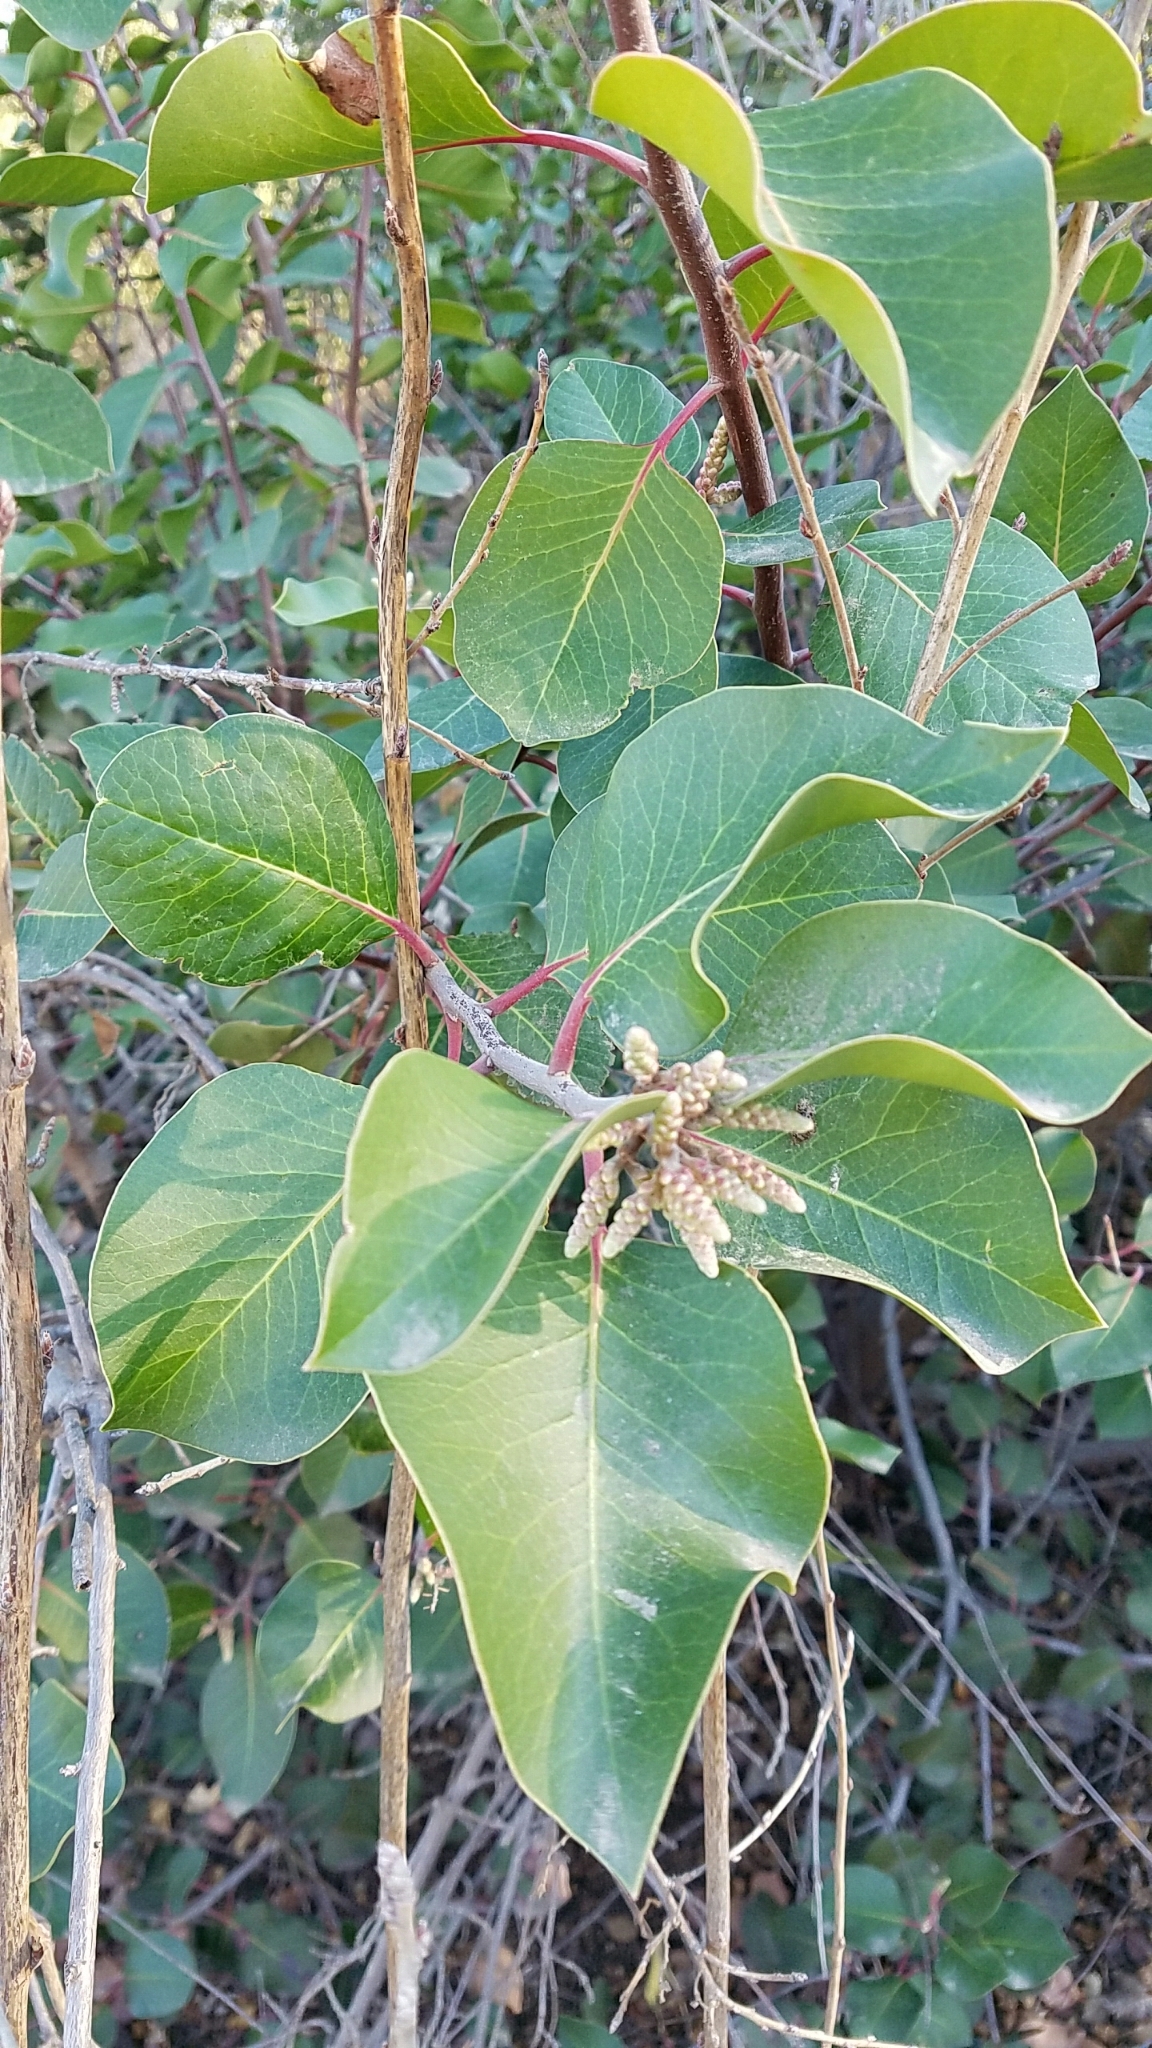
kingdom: Plantae
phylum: Tracheophyta
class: Magnoliopsida
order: Sapindales
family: Anacardiaceae
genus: Rhus
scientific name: Rhus ovata
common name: Sugar sumac
